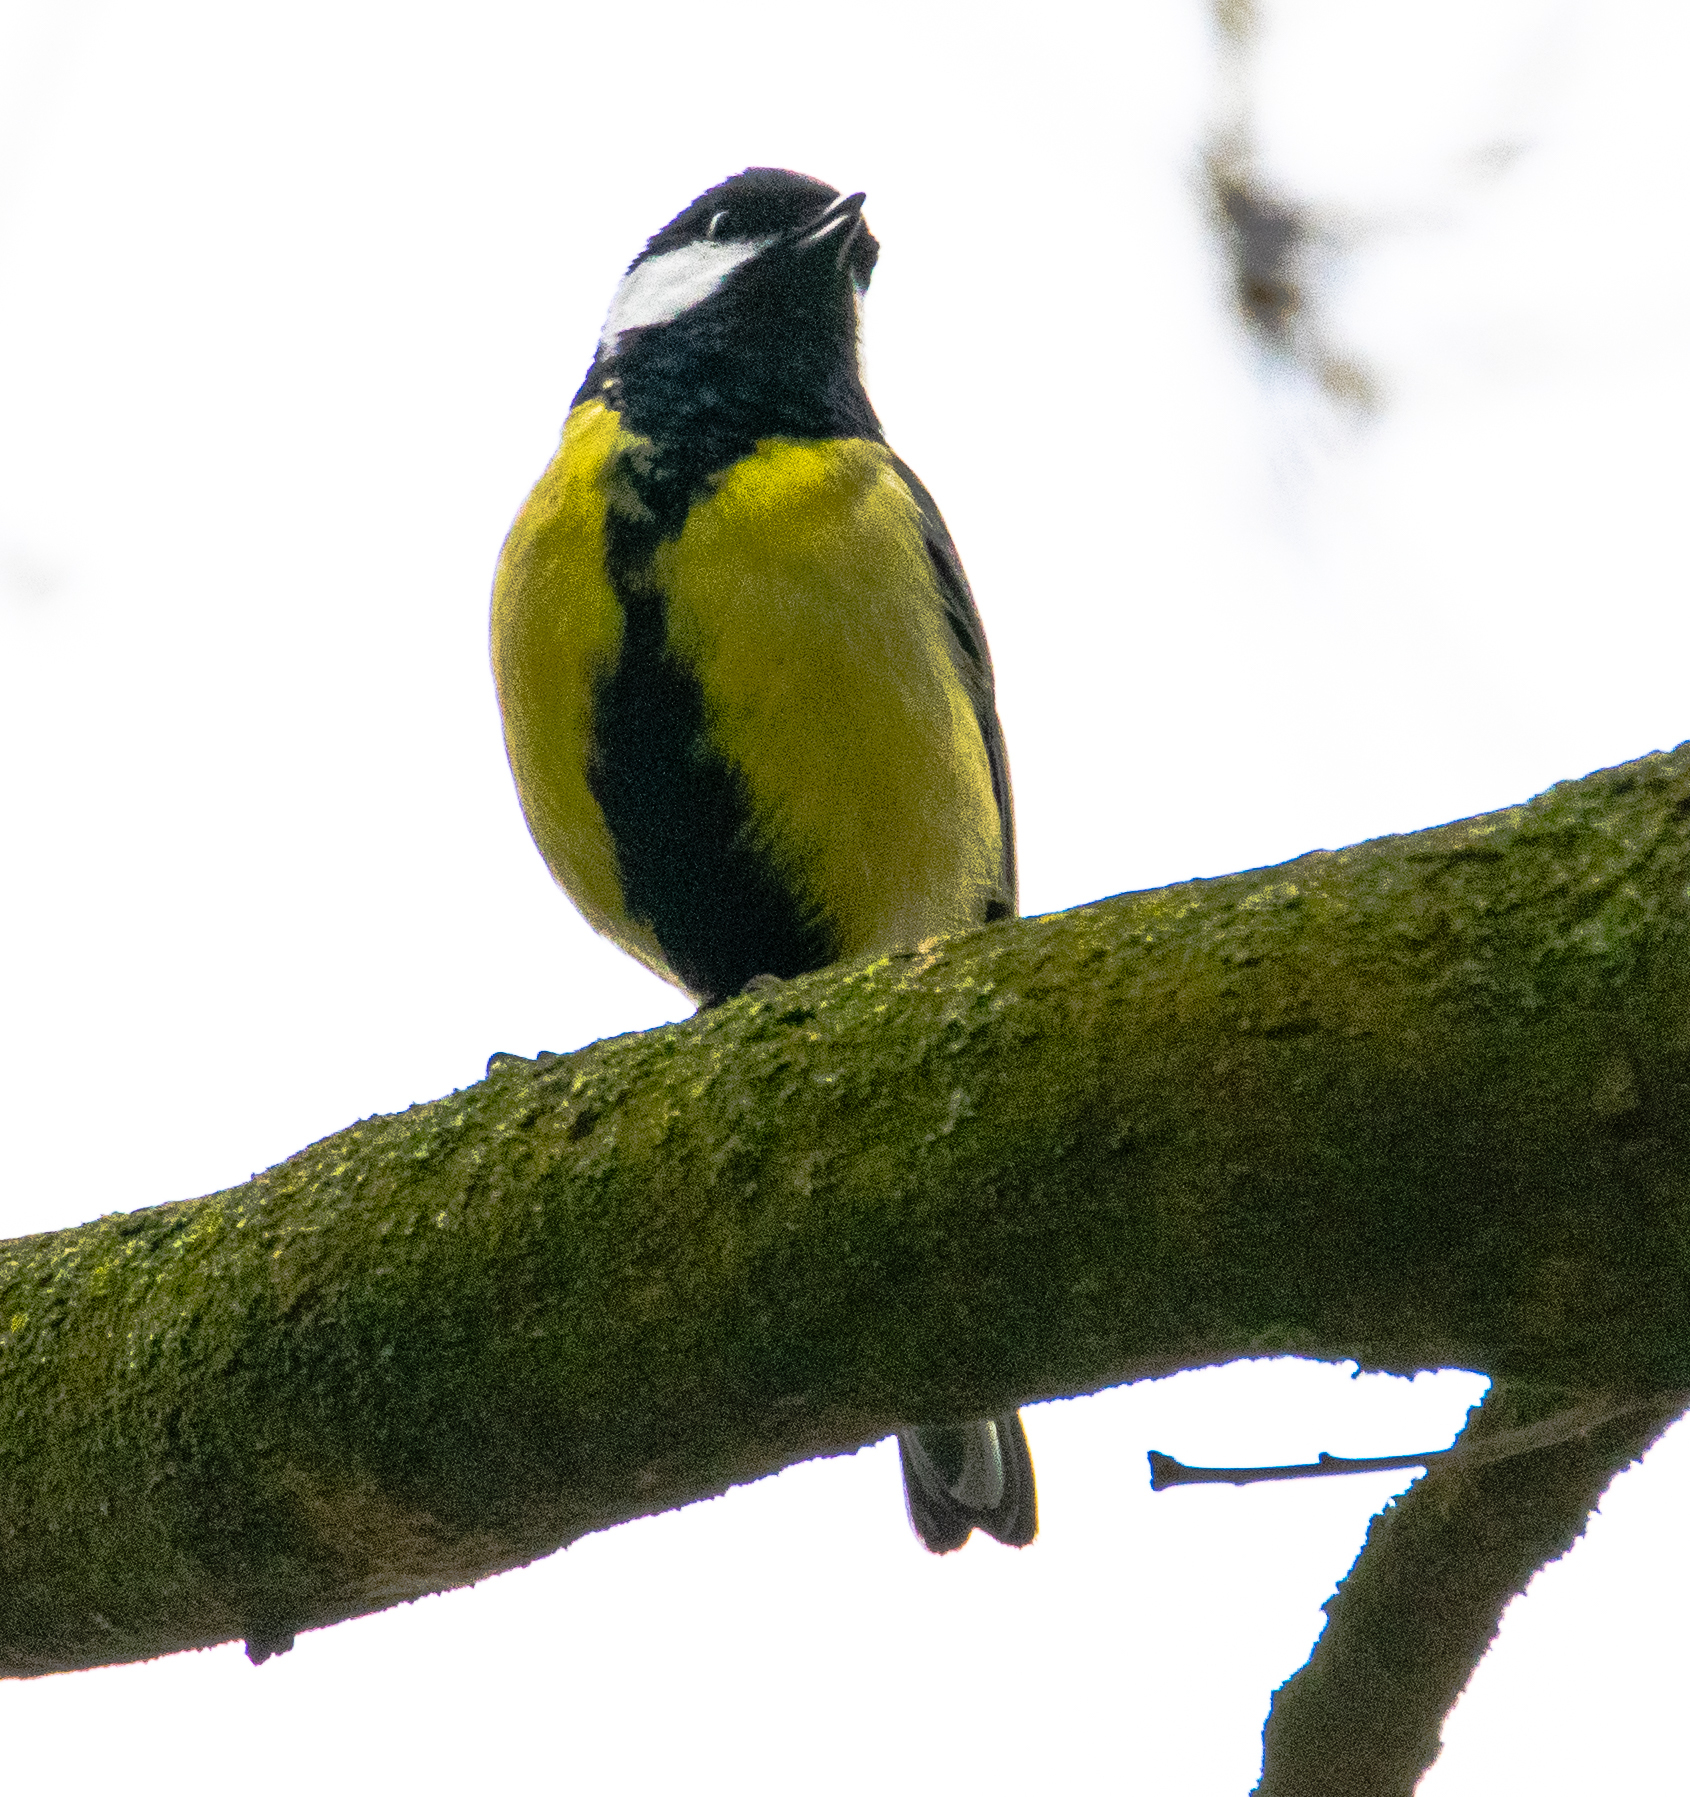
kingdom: Animalia
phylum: Chordata
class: Aves
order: Passeriformes
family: Paridae
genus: Parus
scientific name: Parus major
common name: Great tit
